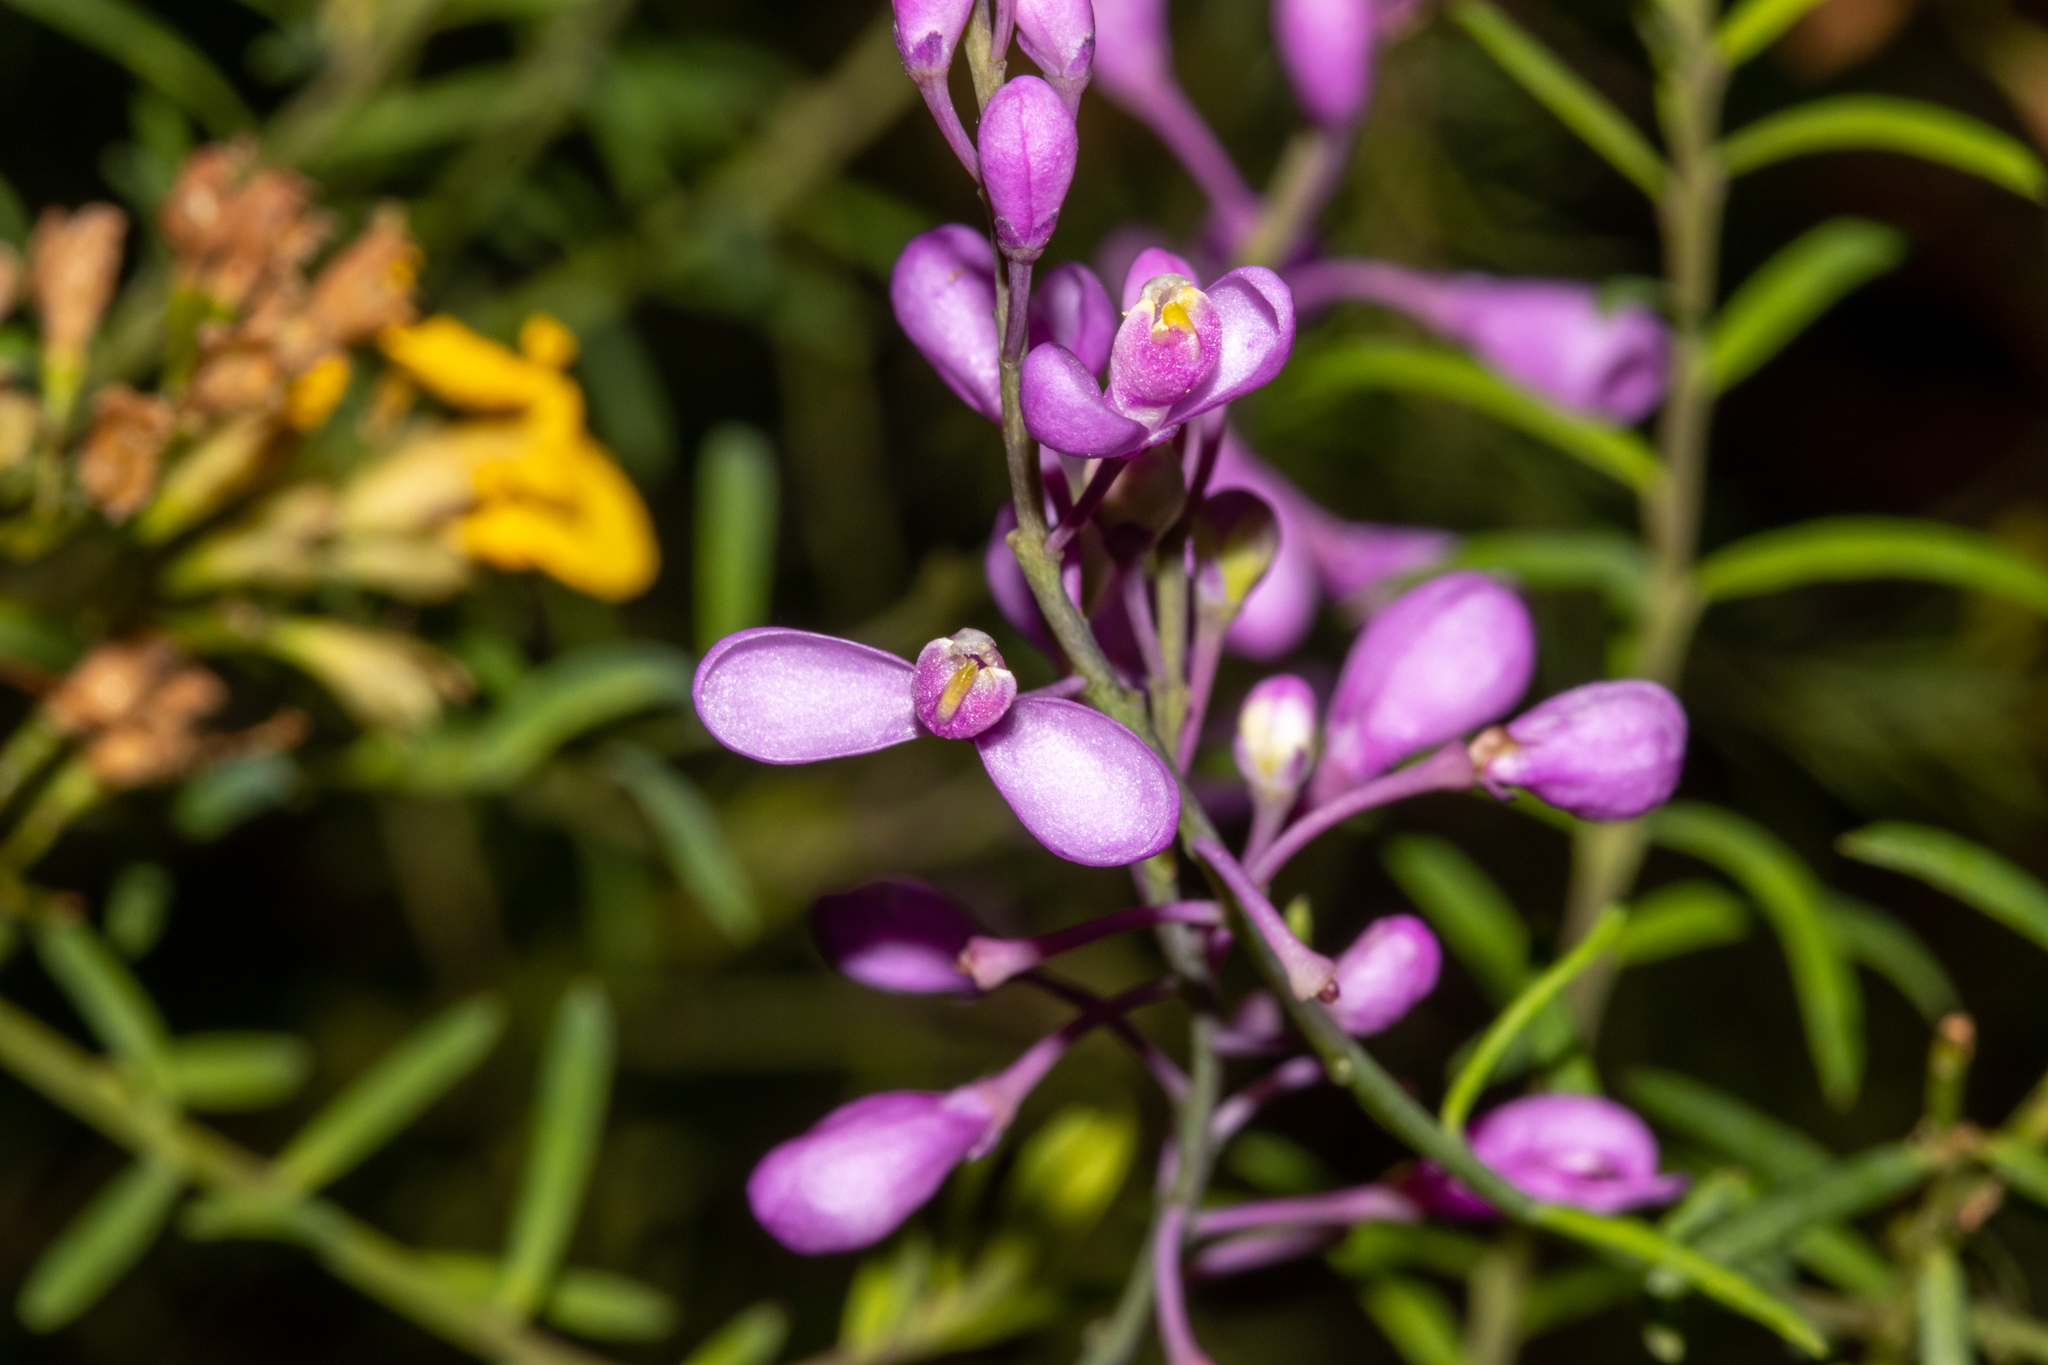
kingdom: Plantae
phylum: Tracheophyta
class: Magnoliopsida
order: Fabales
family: Polygalaceae
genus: Comesperma
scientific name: Comesperma ericinum
